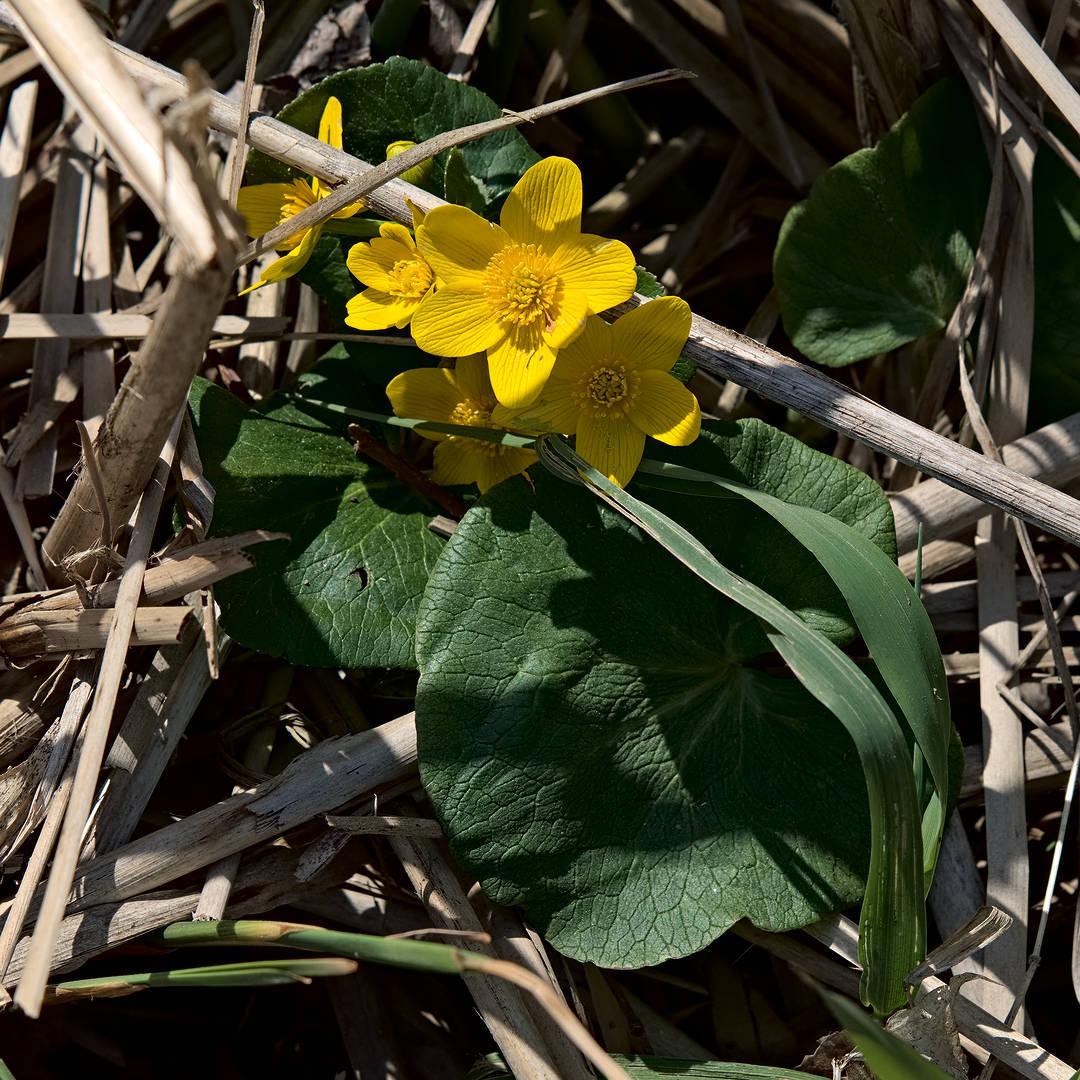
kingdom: Plantae
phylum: Tracheophyta
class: Magnoliopsida
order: Ranunculales
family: Ranunculaceae
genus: Caltha
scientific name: Caltha palustris
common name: Marsh marigold
